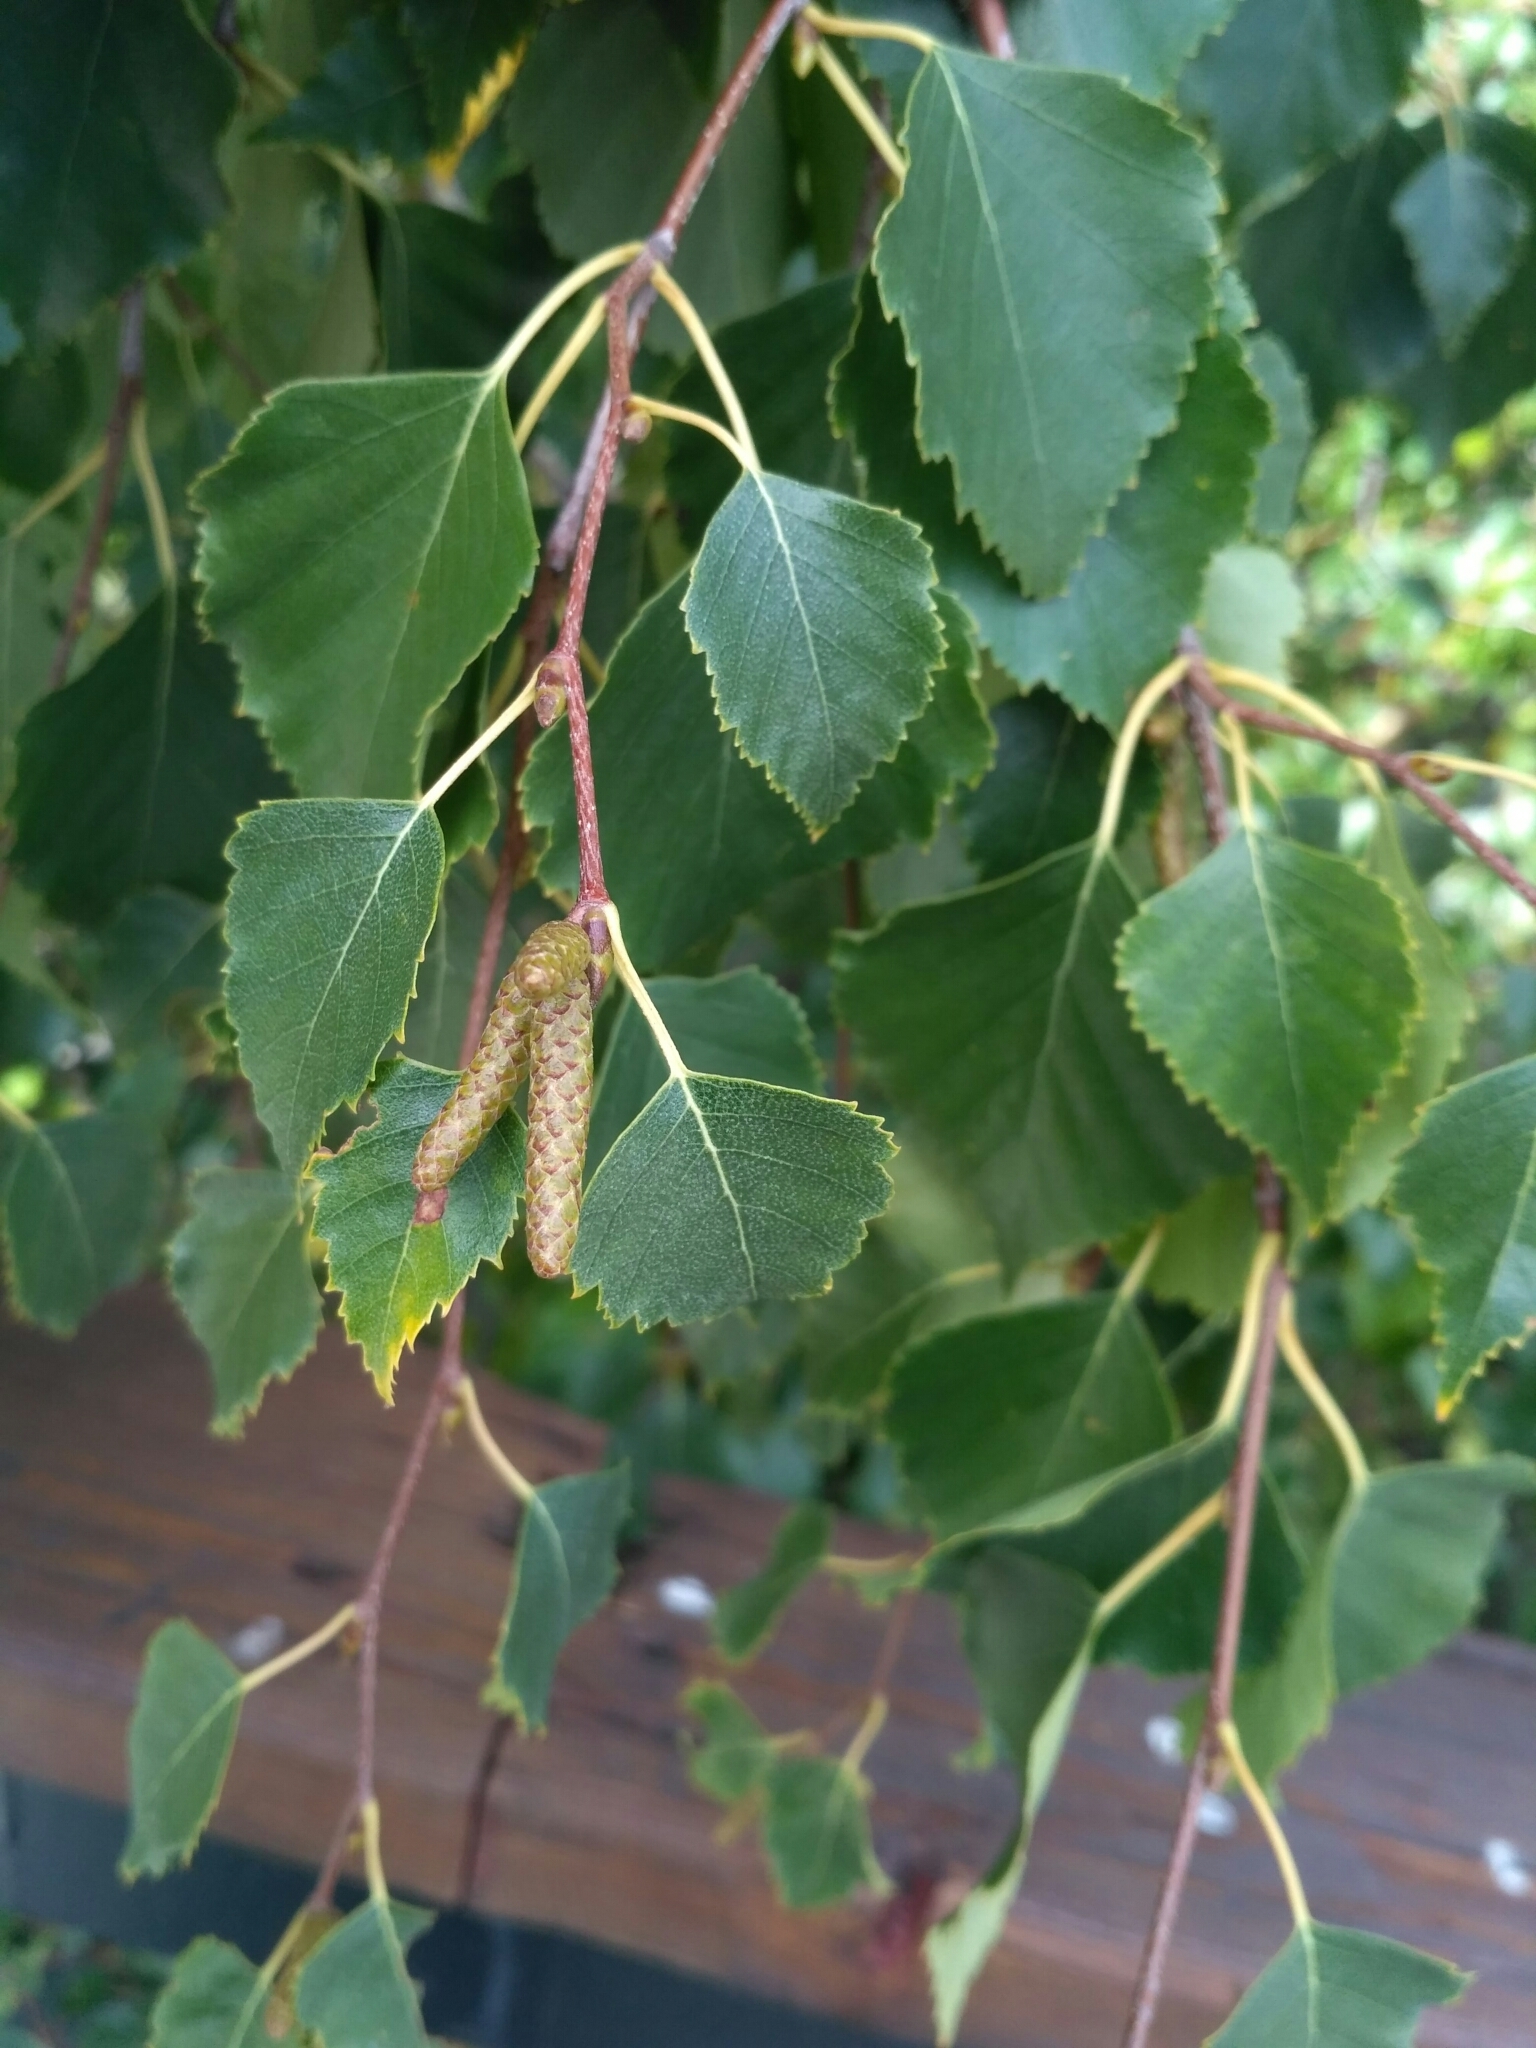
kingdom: Plantae
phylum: Tracheophyta
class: Magnoliopsida
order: Fagales
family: Betulaceae
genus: Betula
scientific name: Betula pendula
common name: Silver birch
